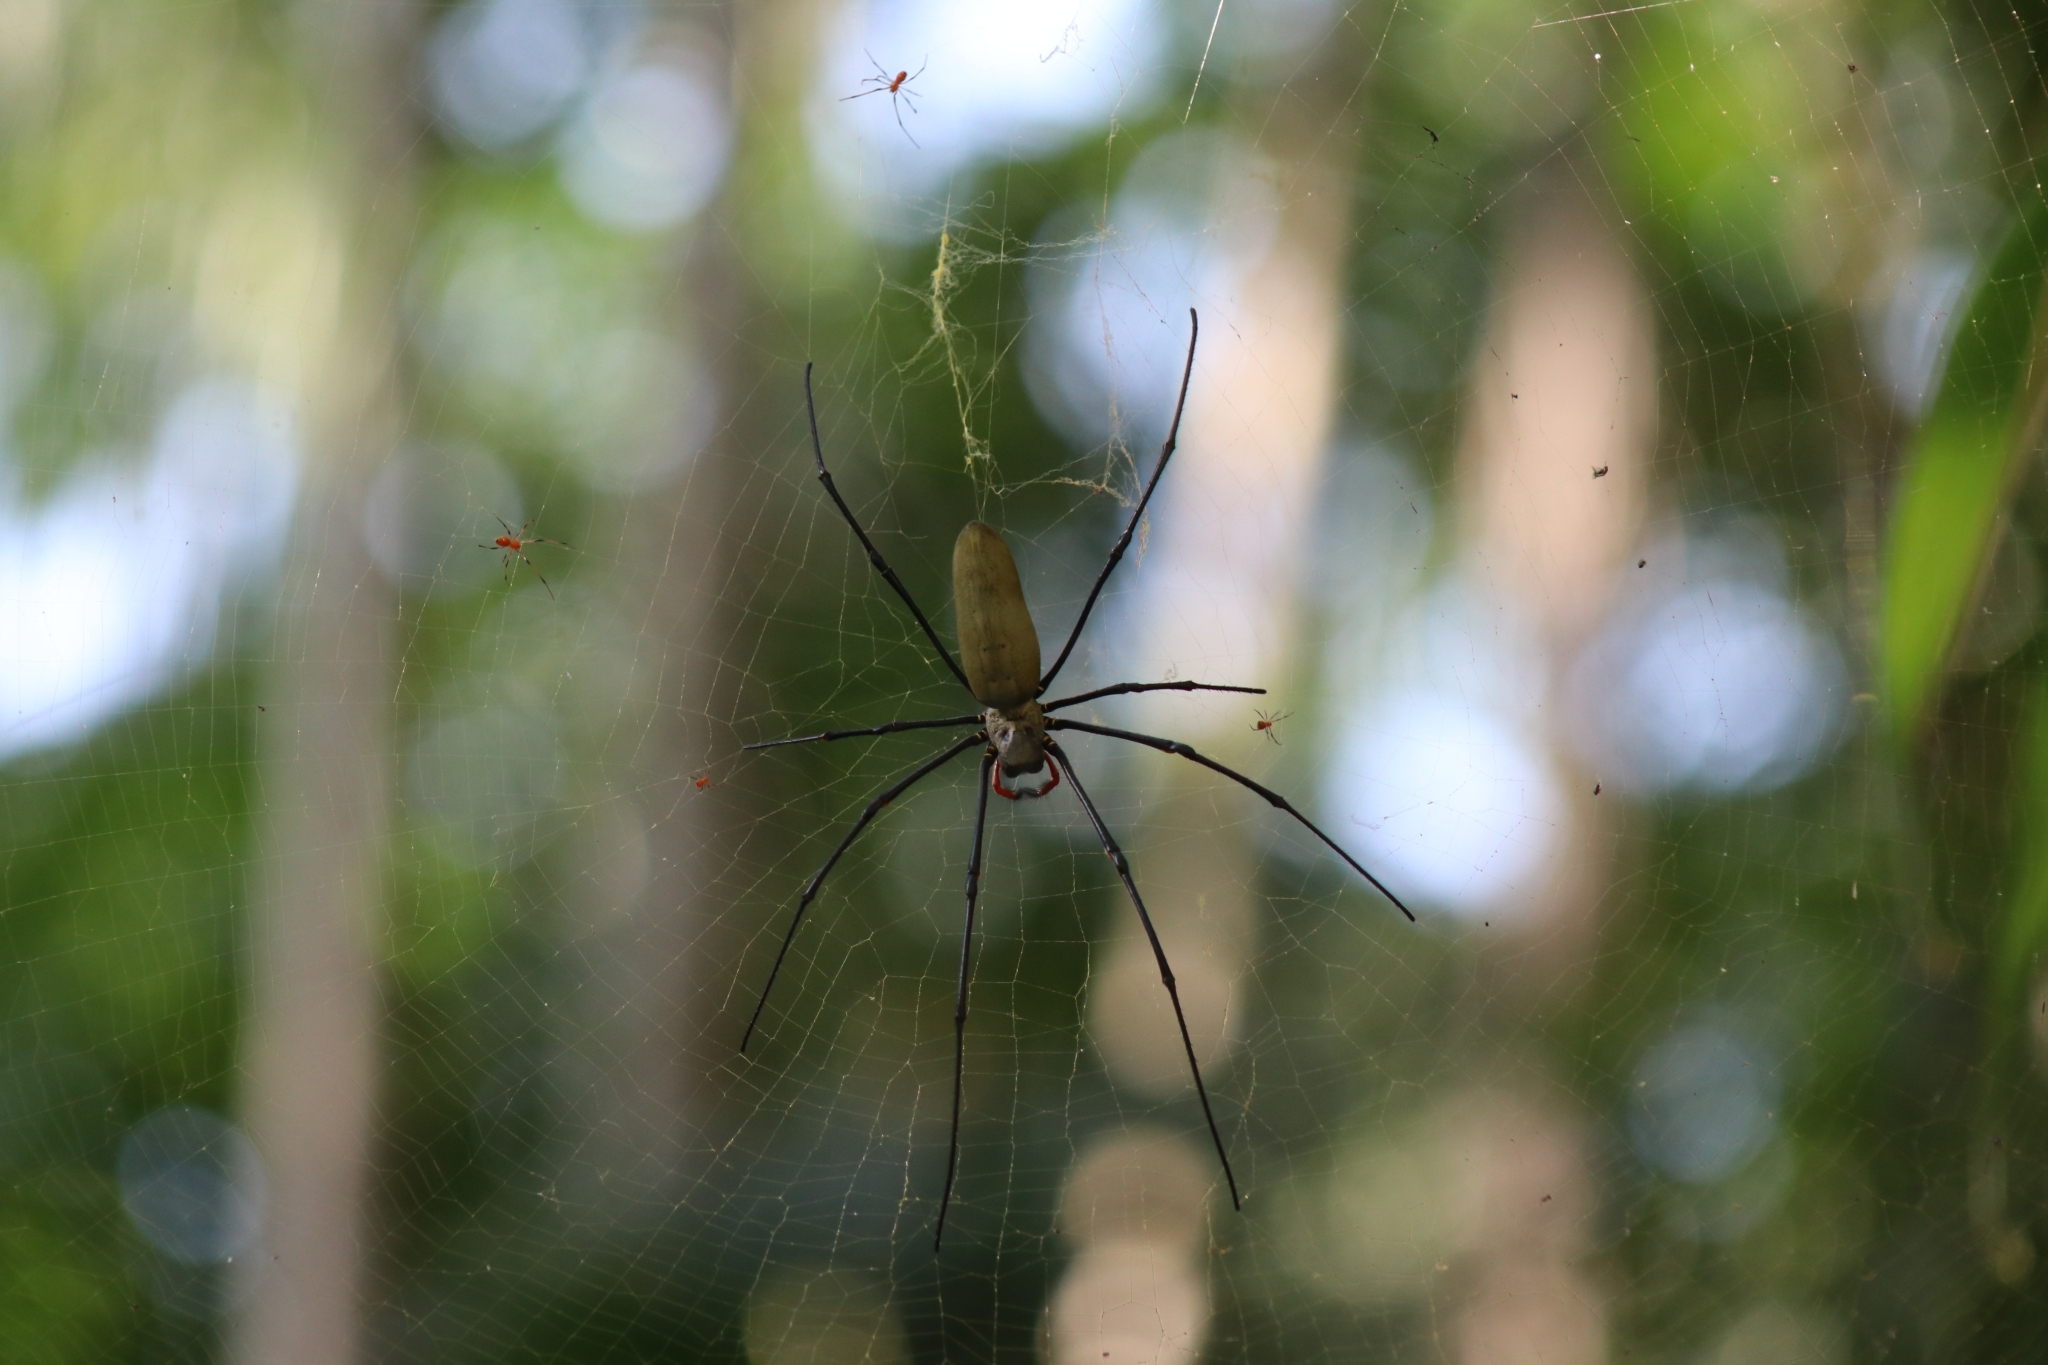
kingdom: Animalia
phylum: Arthropoda
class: Arachnida
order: Araneae
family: Araneidae
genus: Nephila
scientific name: Nephila pilipes
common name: Giant golden orb weaver
